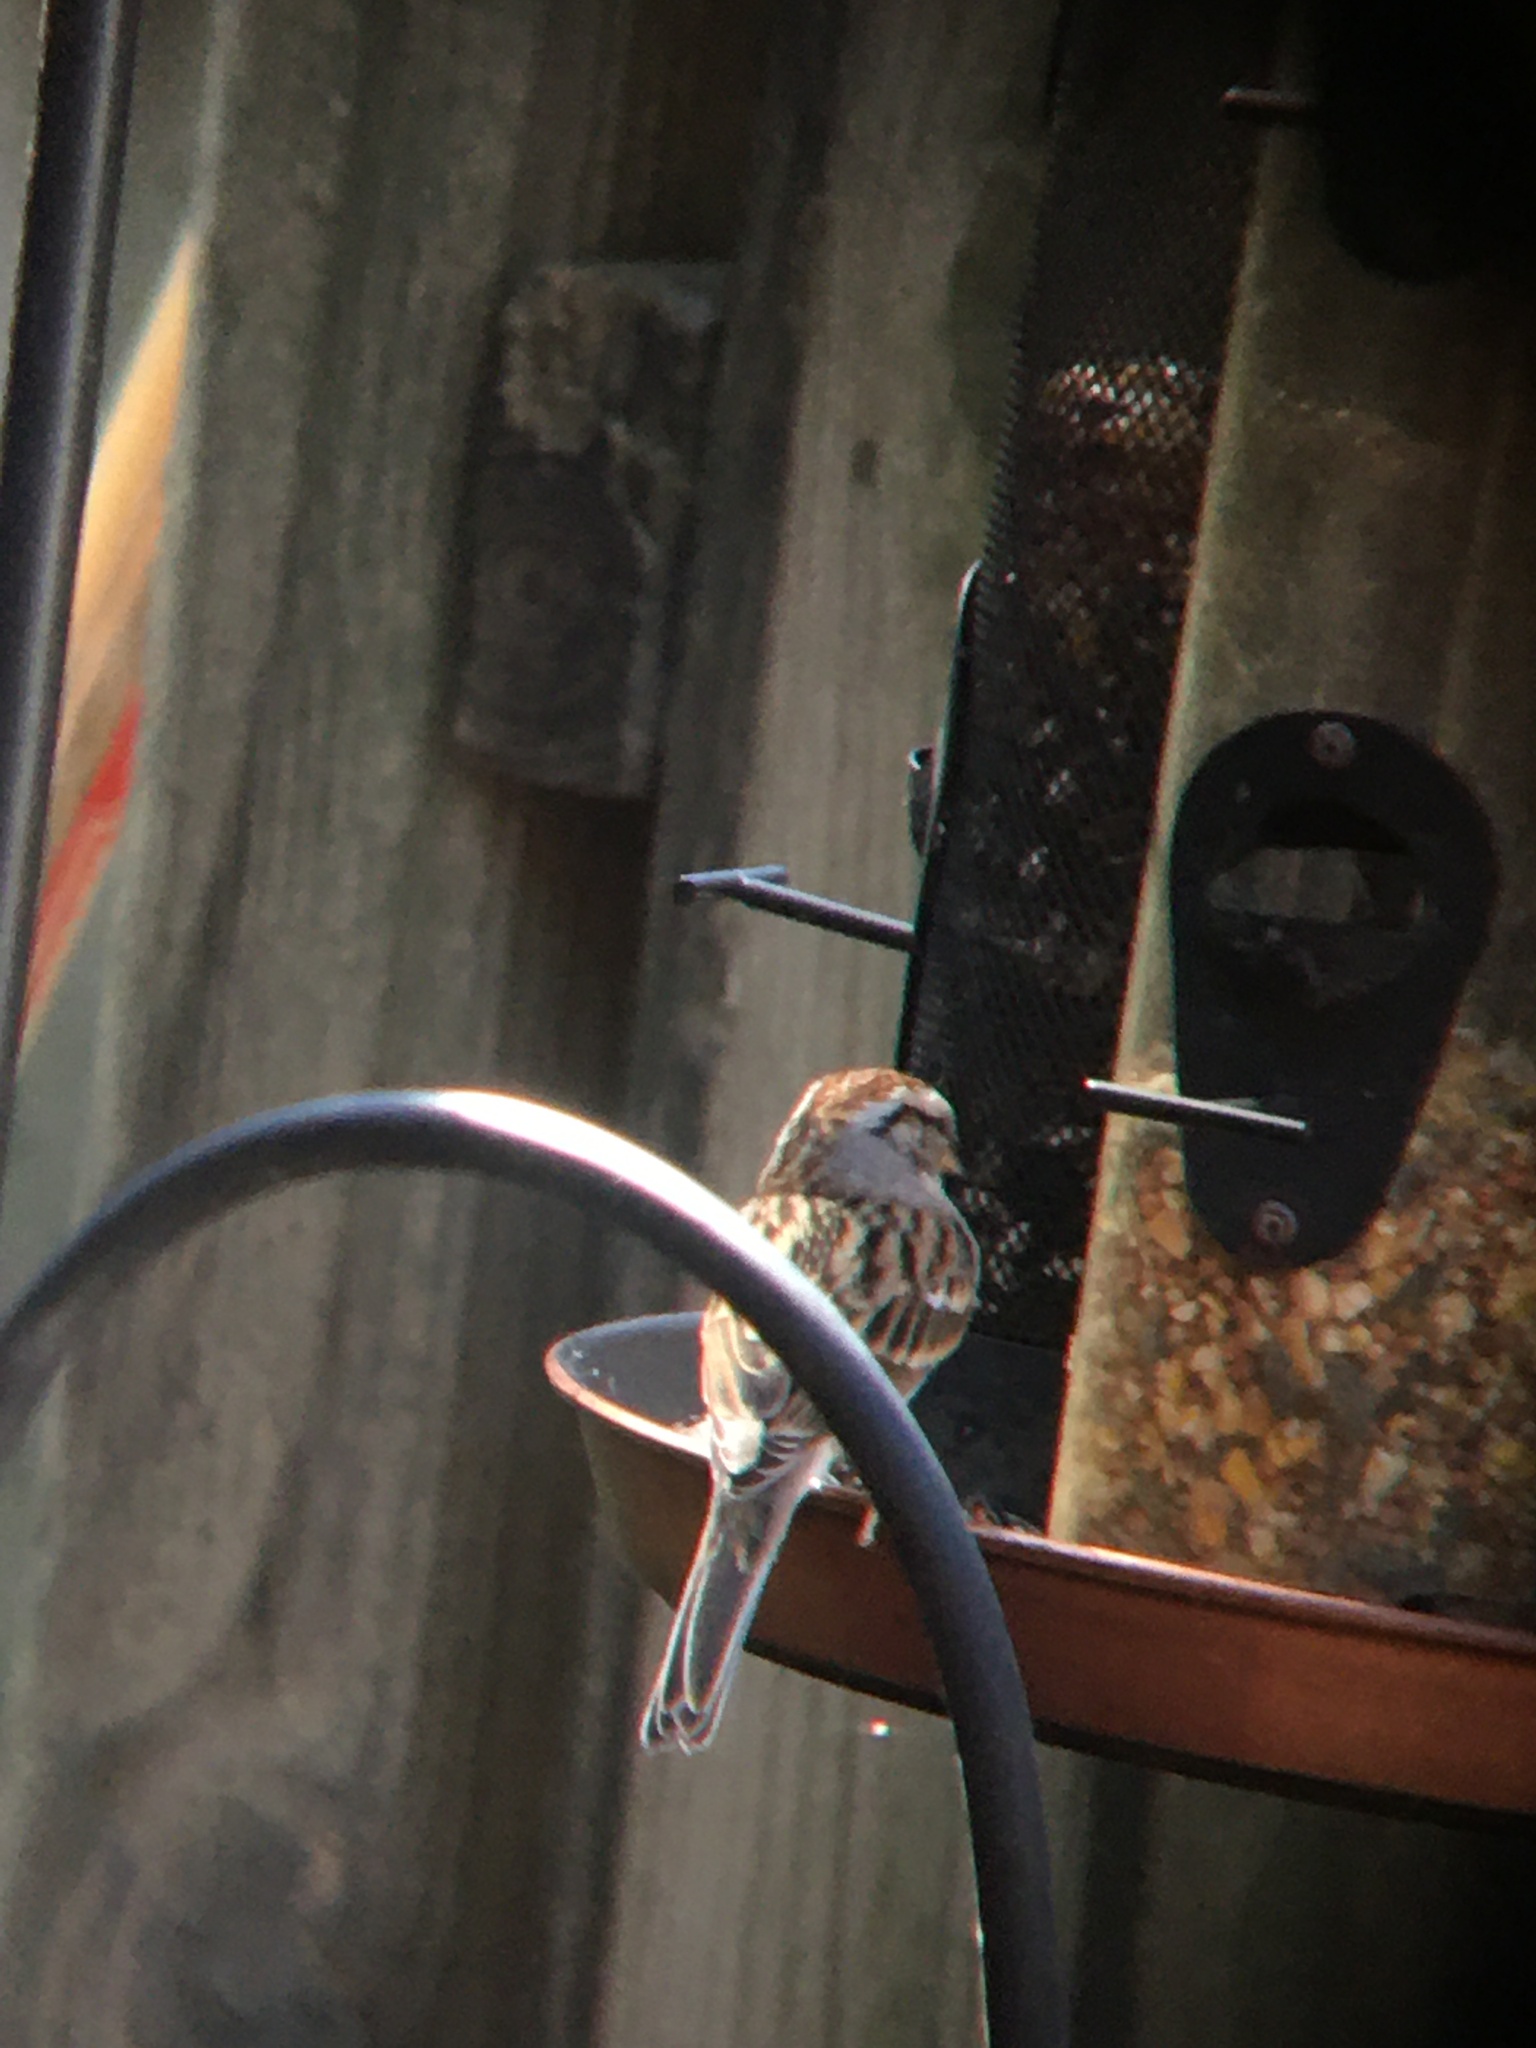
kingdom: Animalia
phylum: Chordata
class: Aves
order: Passeriformes
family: Passerellidae
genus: Spizella
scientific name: Spizella passerina
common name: Chipping sparrow
